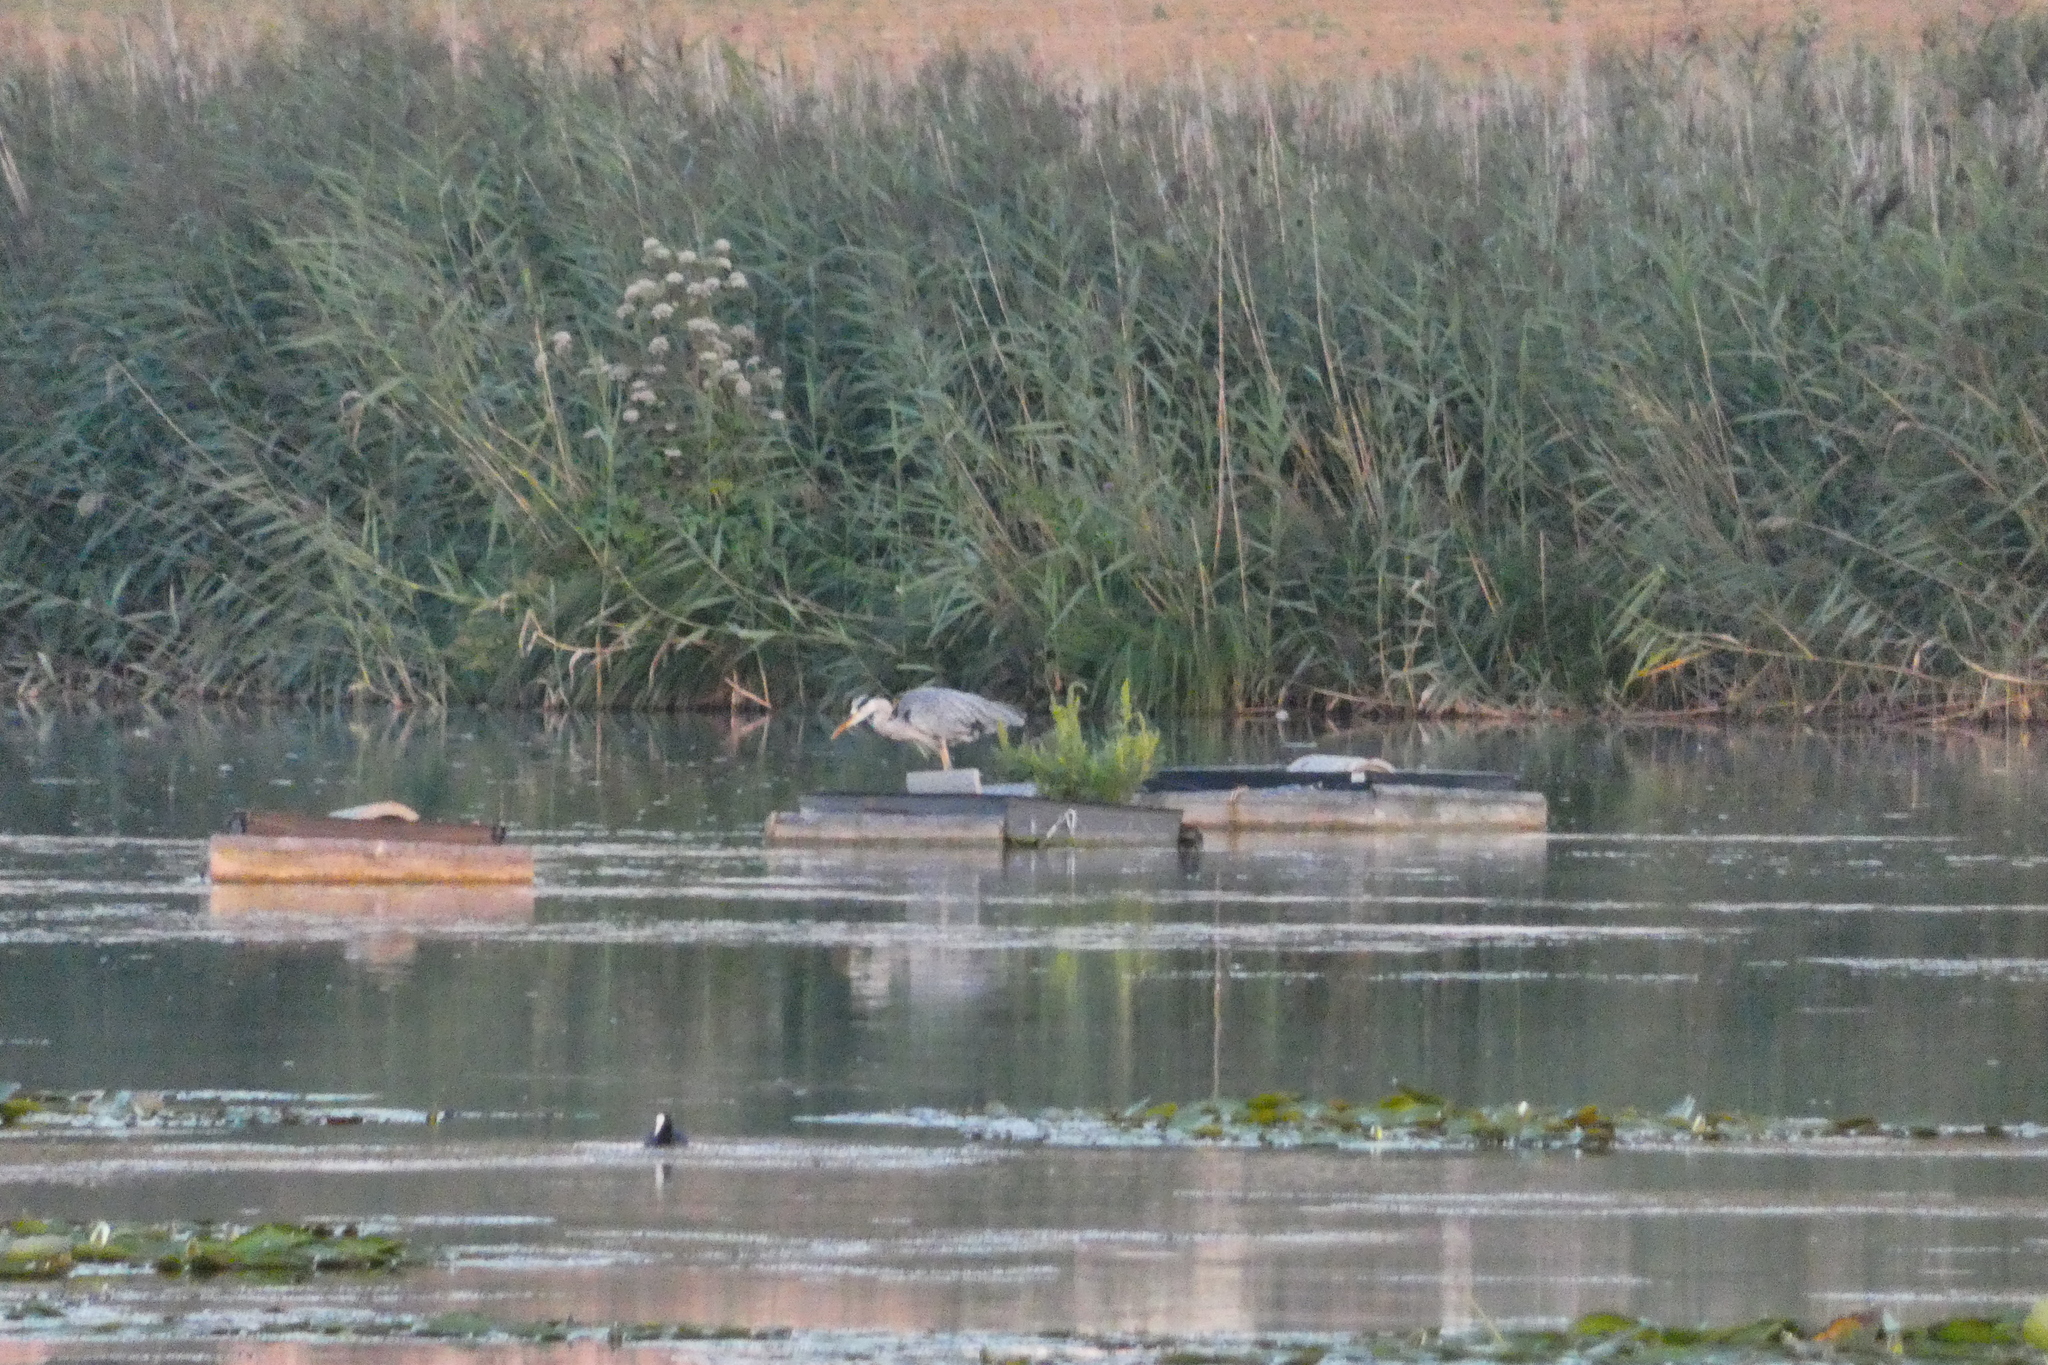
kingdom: Animalia
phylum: Chordata
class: Aves
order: Pelecaniformes
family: Ardeidae
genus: Ardea
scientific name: Ardea cinerea
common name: Grey heron
